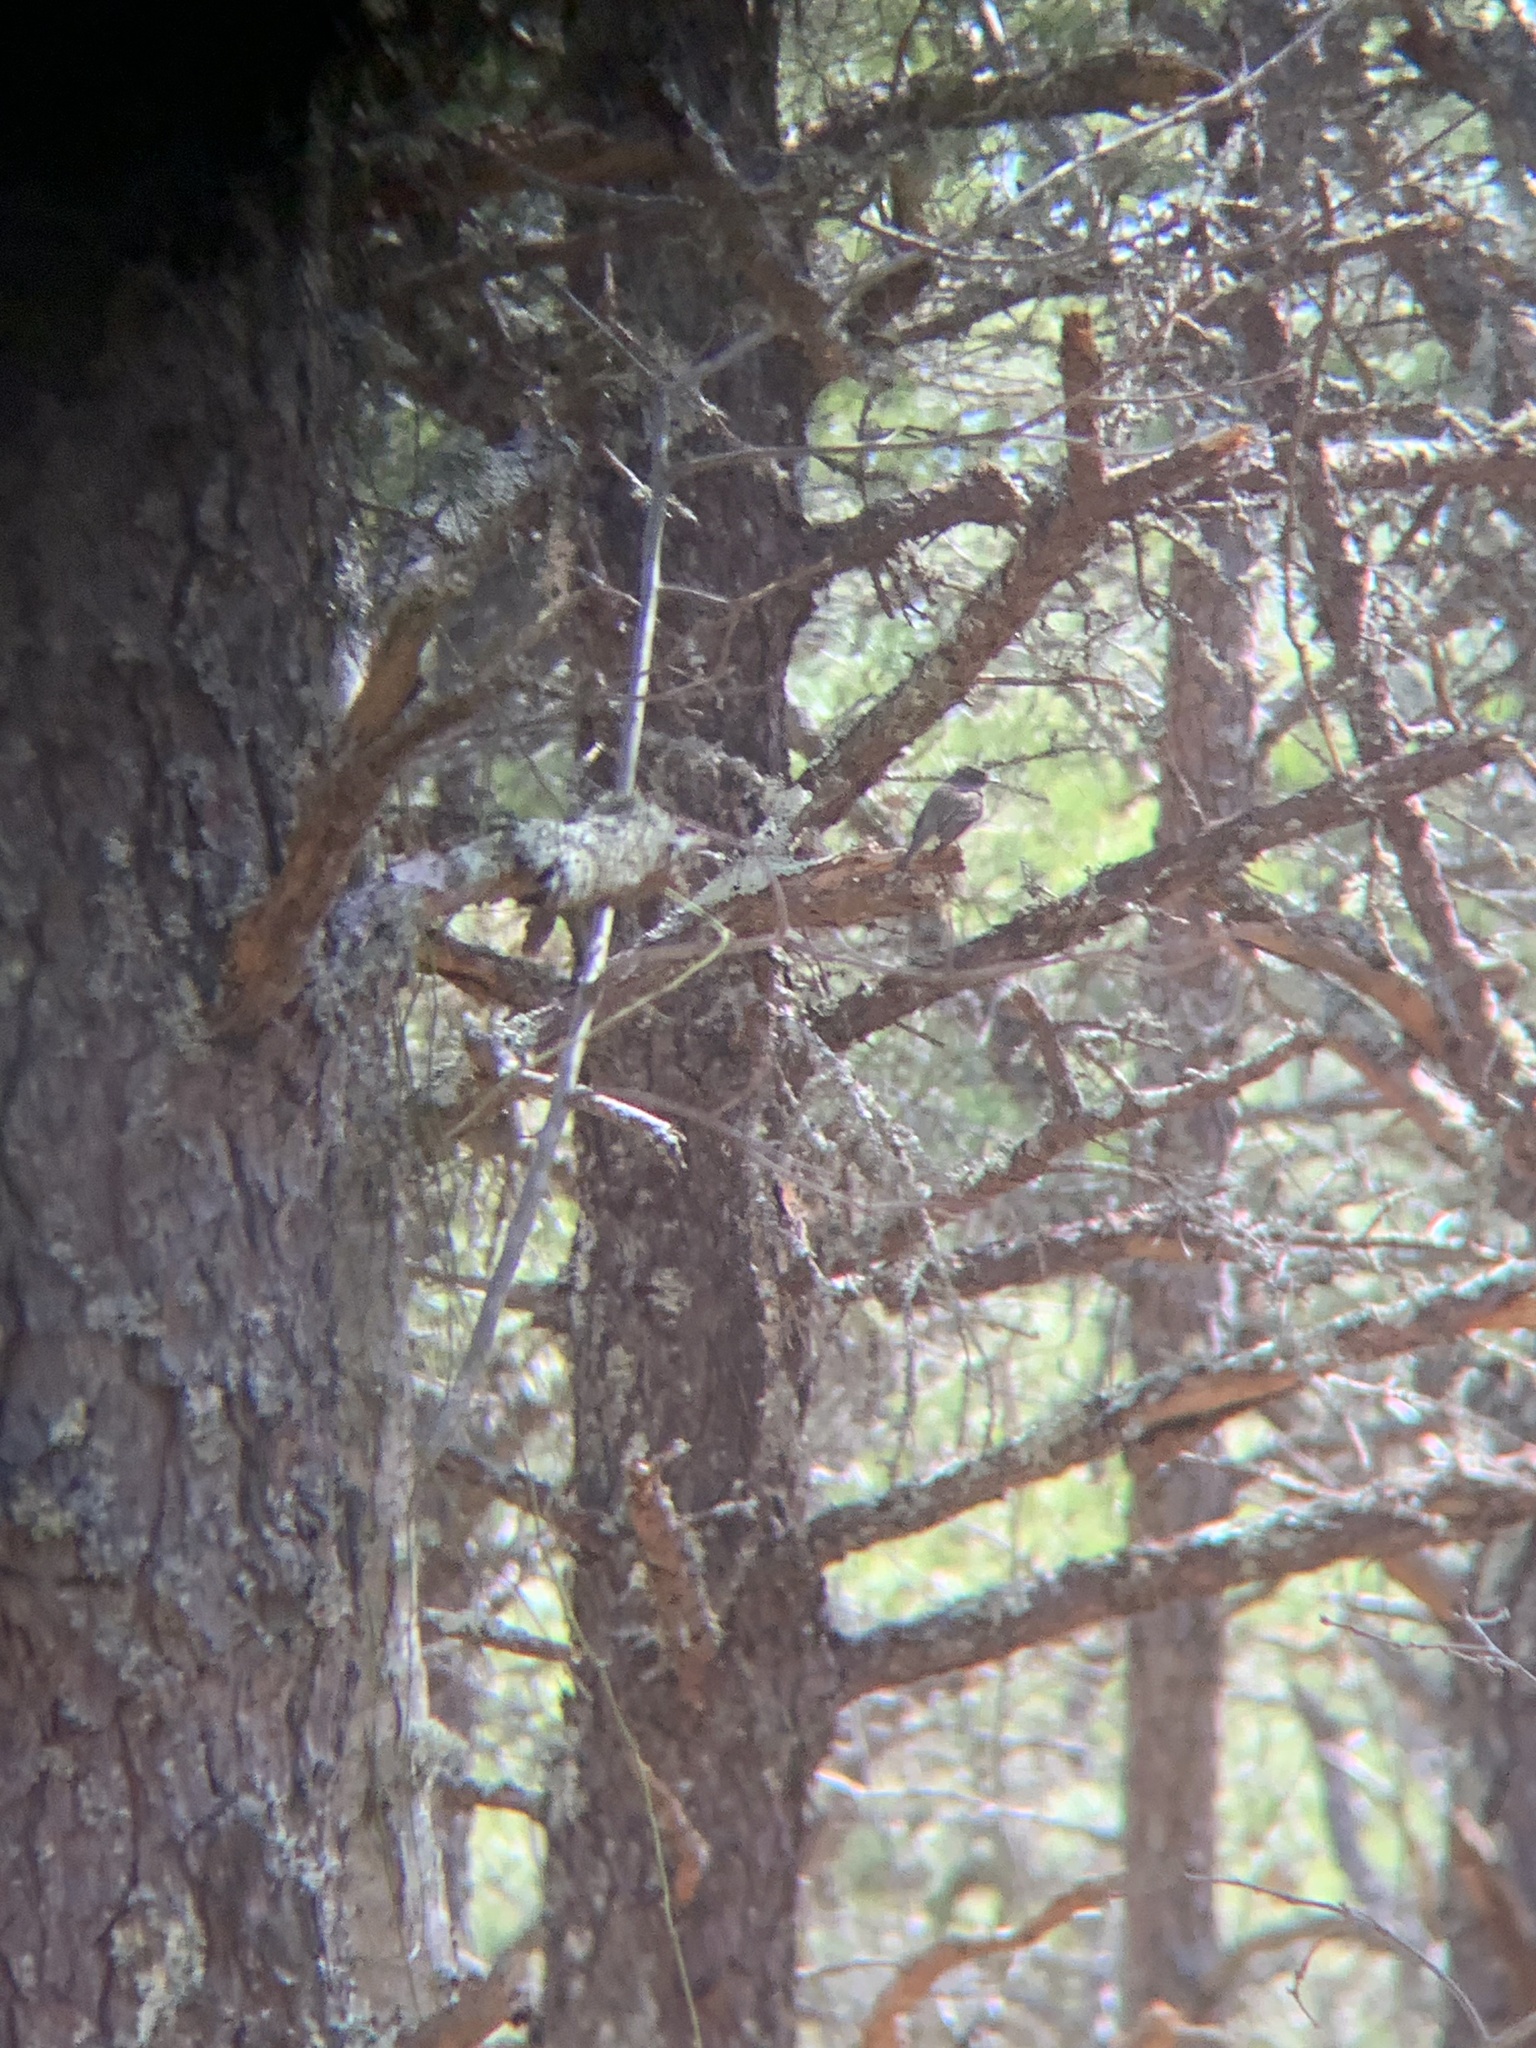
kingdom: Animalia
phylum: Chordata
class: Aves
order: Passeriformes
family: Tyrannidae
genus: Sayornis
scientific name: Sayornis phoebe
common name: Eastern phoebe
